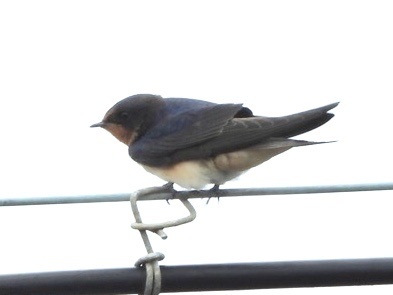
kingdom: Animalia
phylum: Chordata
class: Aves
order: Passeriformes
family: Hirundinidae
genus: Hirundo
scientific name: Hirundo rustica
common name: Barn swallow
